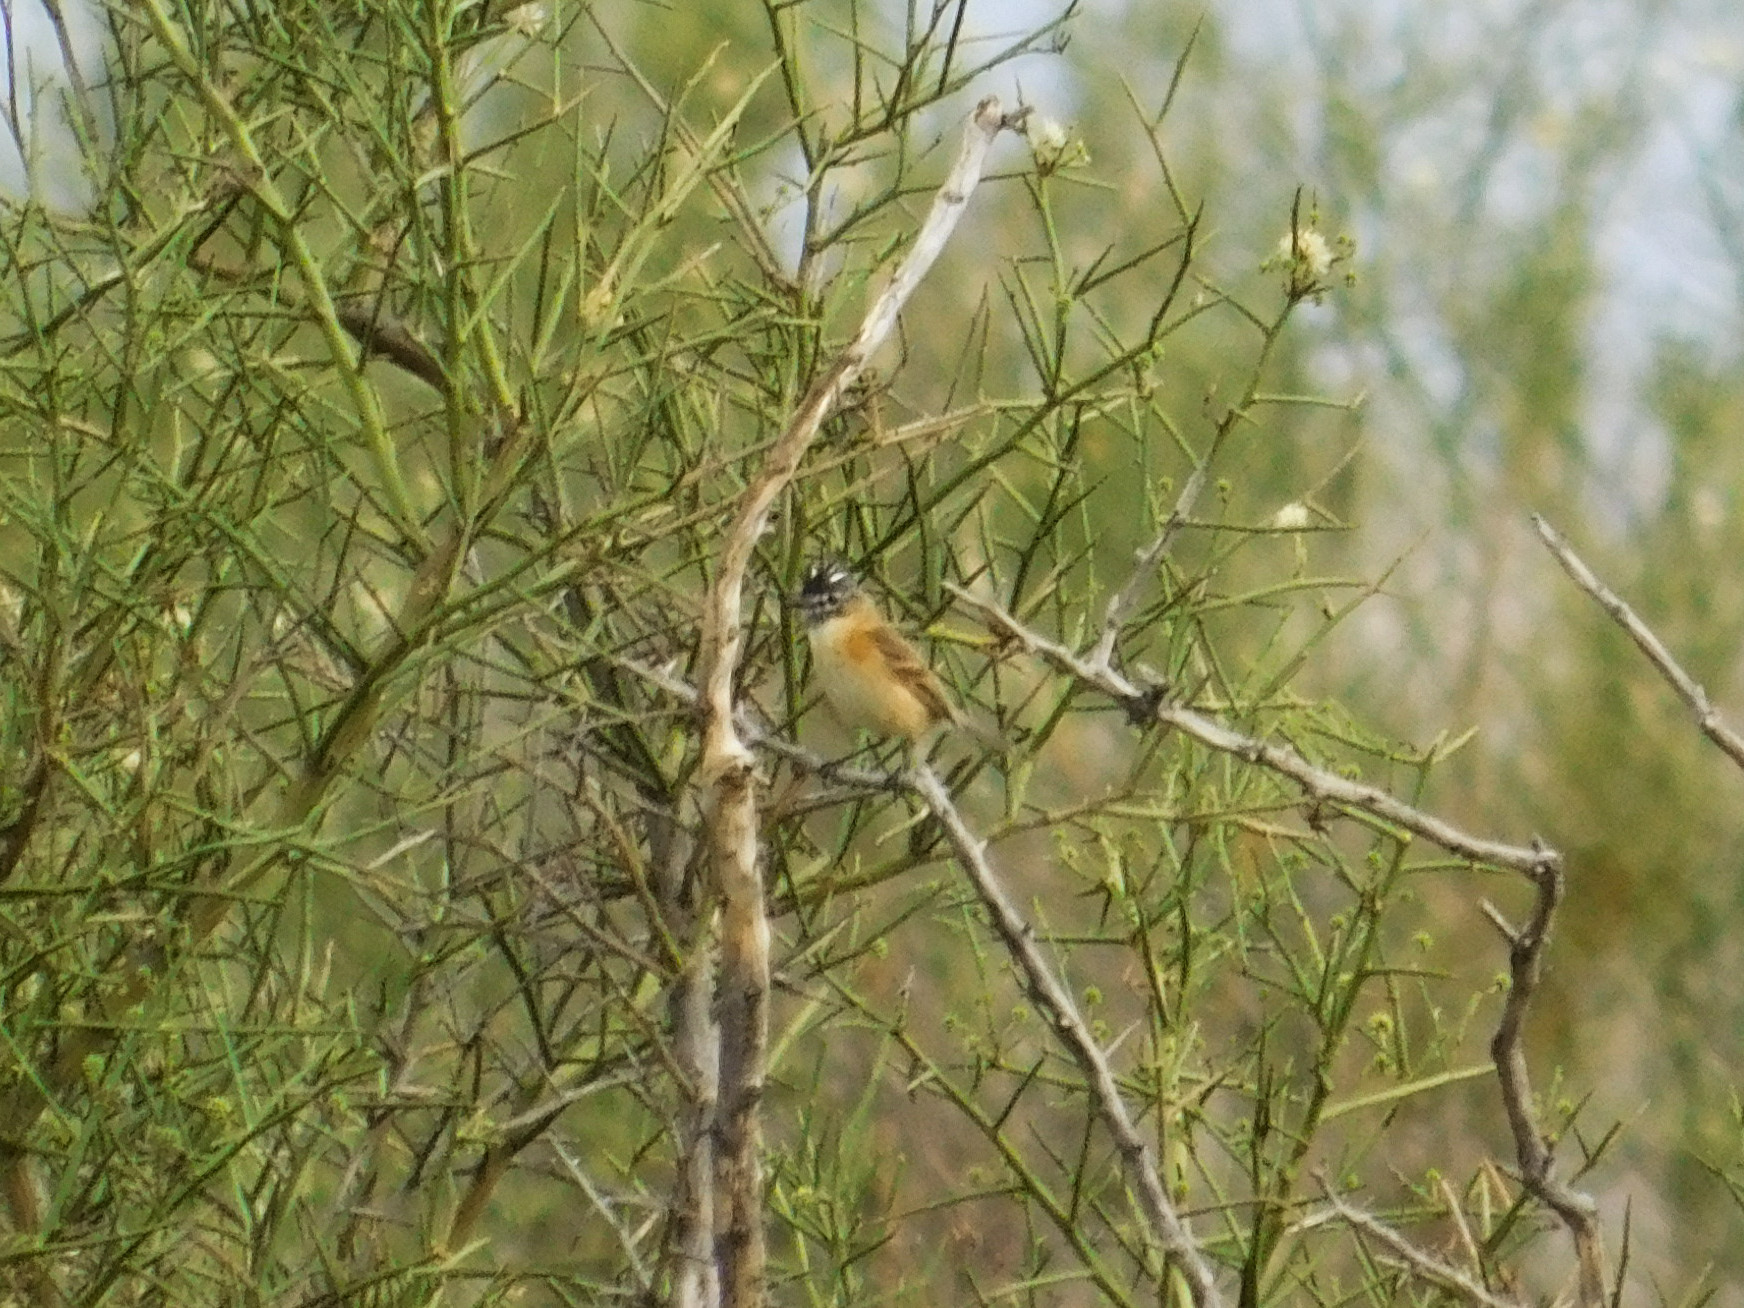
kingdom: Animalia
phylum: Chordata
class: Aves
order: Passeriformes
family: Tyrannidae
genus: Polystictus
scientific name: Polystictus pectoralis
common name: Bearded tachuri
